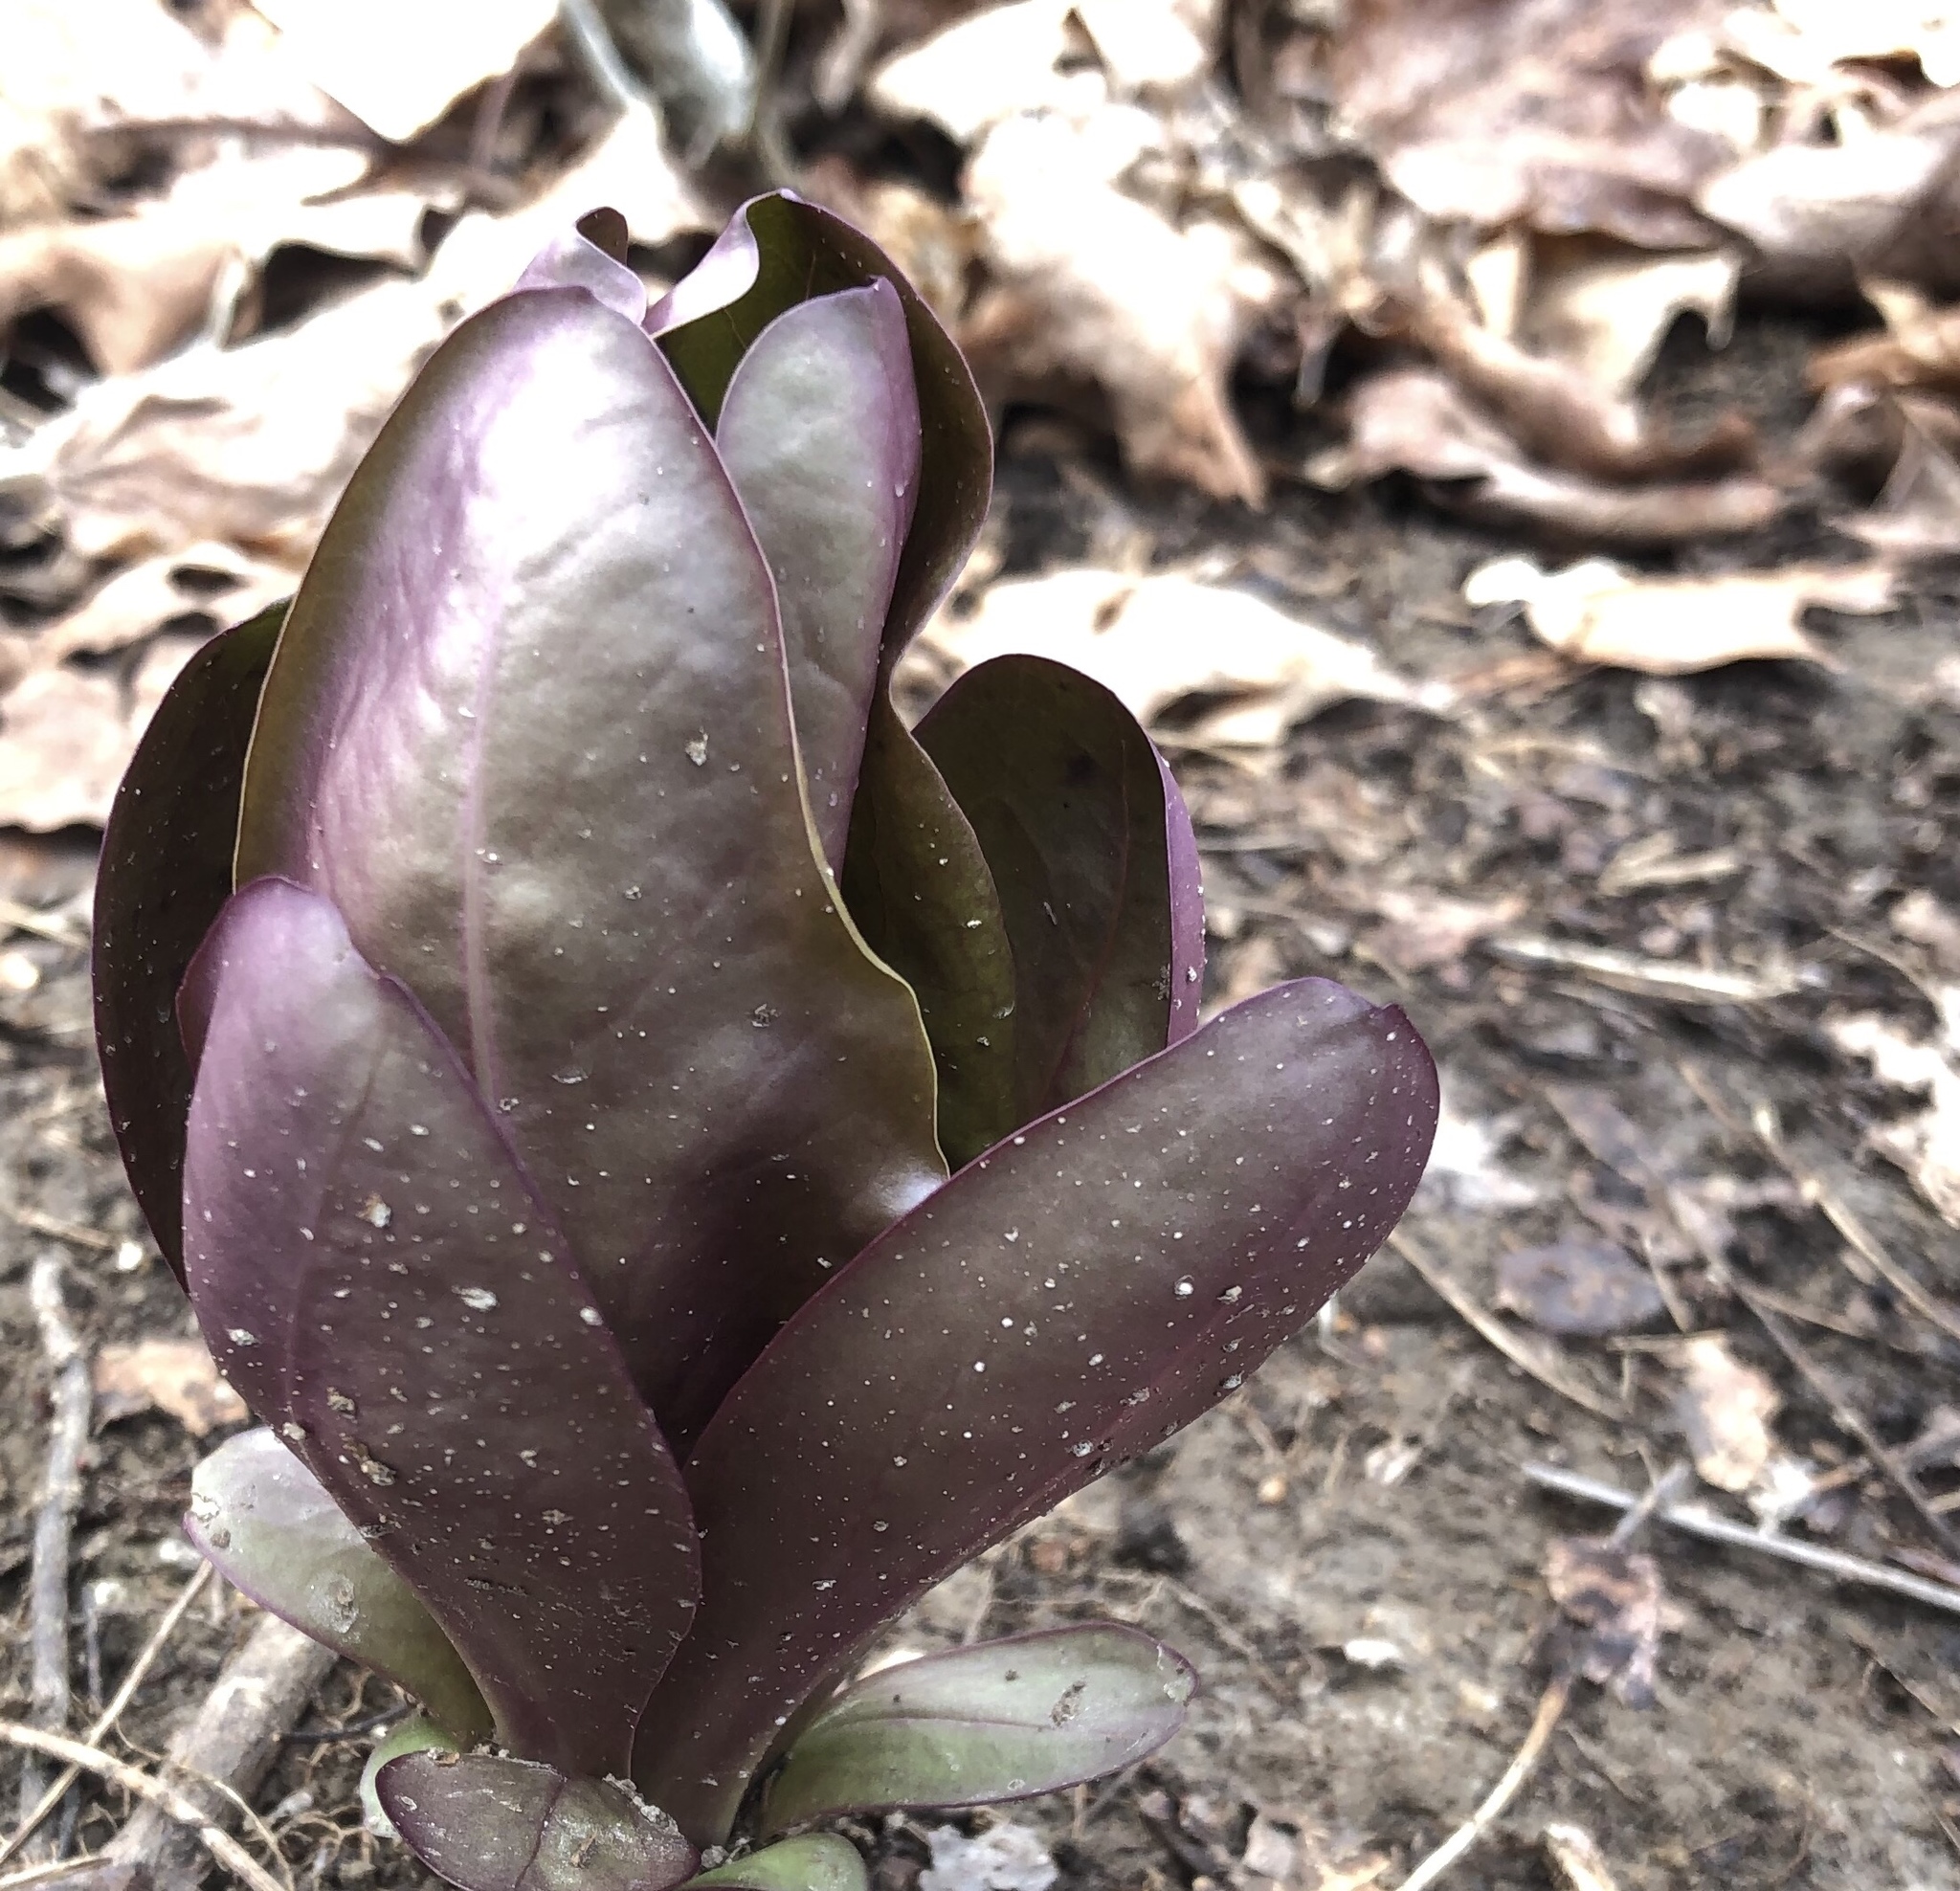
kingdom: Plantae
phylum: Tracheophyta
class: Magnoliopsida
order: Gentianales
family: Gentianaceae
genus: Frasera
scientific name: Frasera caroliniensis
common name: American columbo
